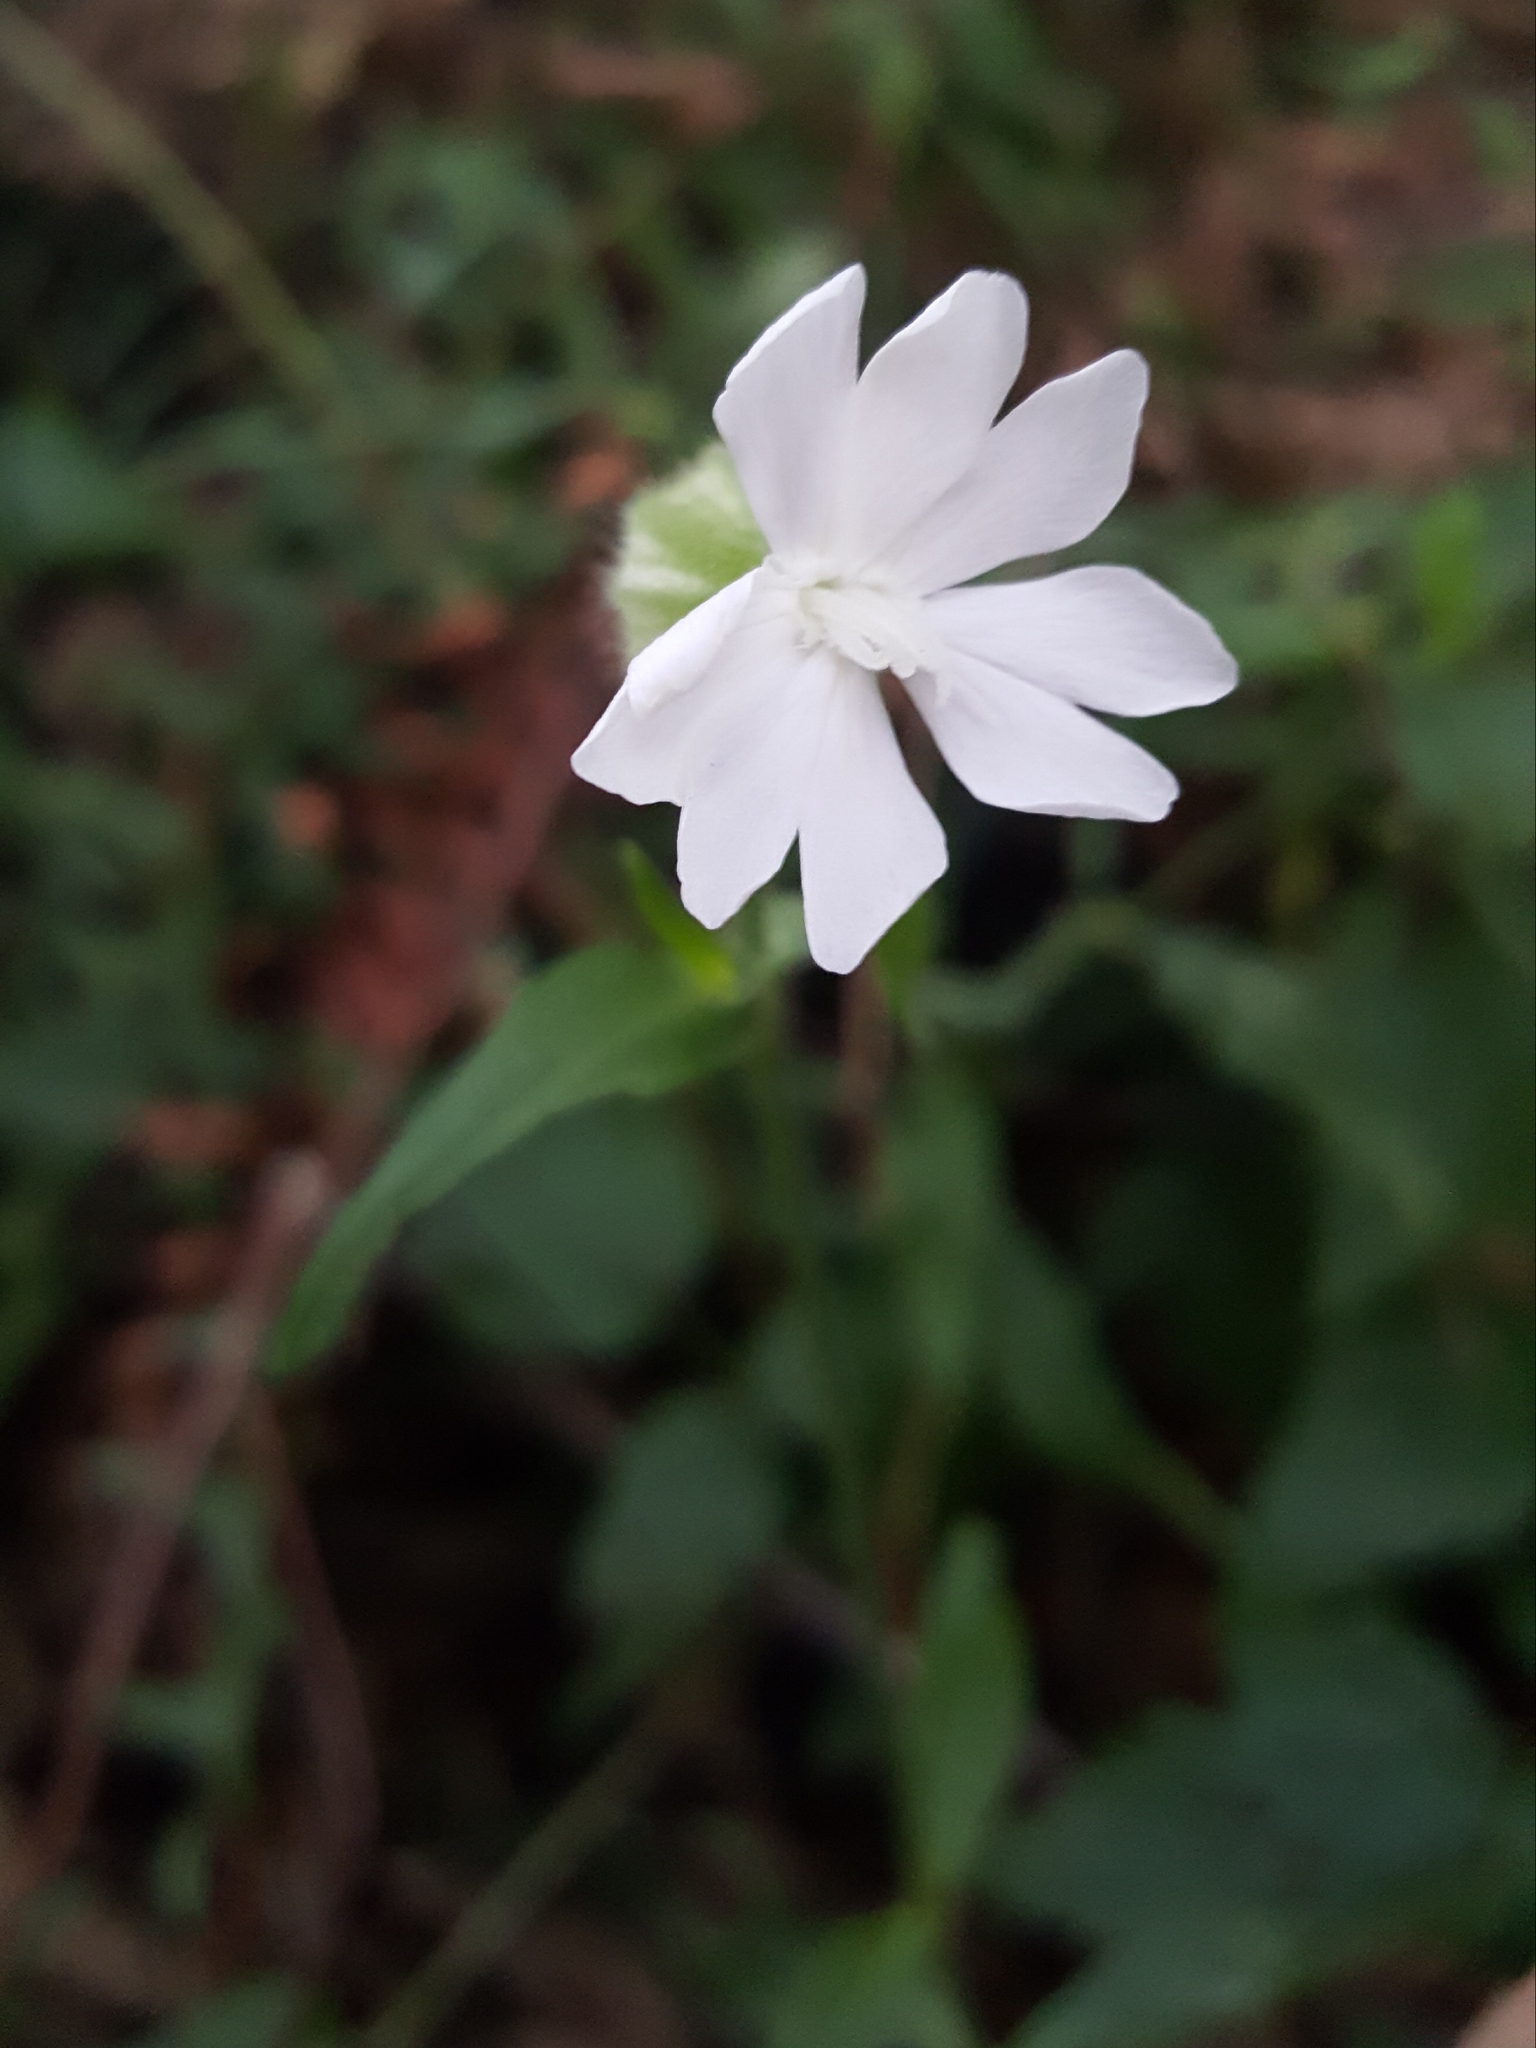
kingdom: Plantae
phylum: Tracheophyta
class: Magnoliopsida
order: Caryophyllales
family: Caryophyllaceae
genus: Silene
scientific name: Silene latifolia
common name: White campion
